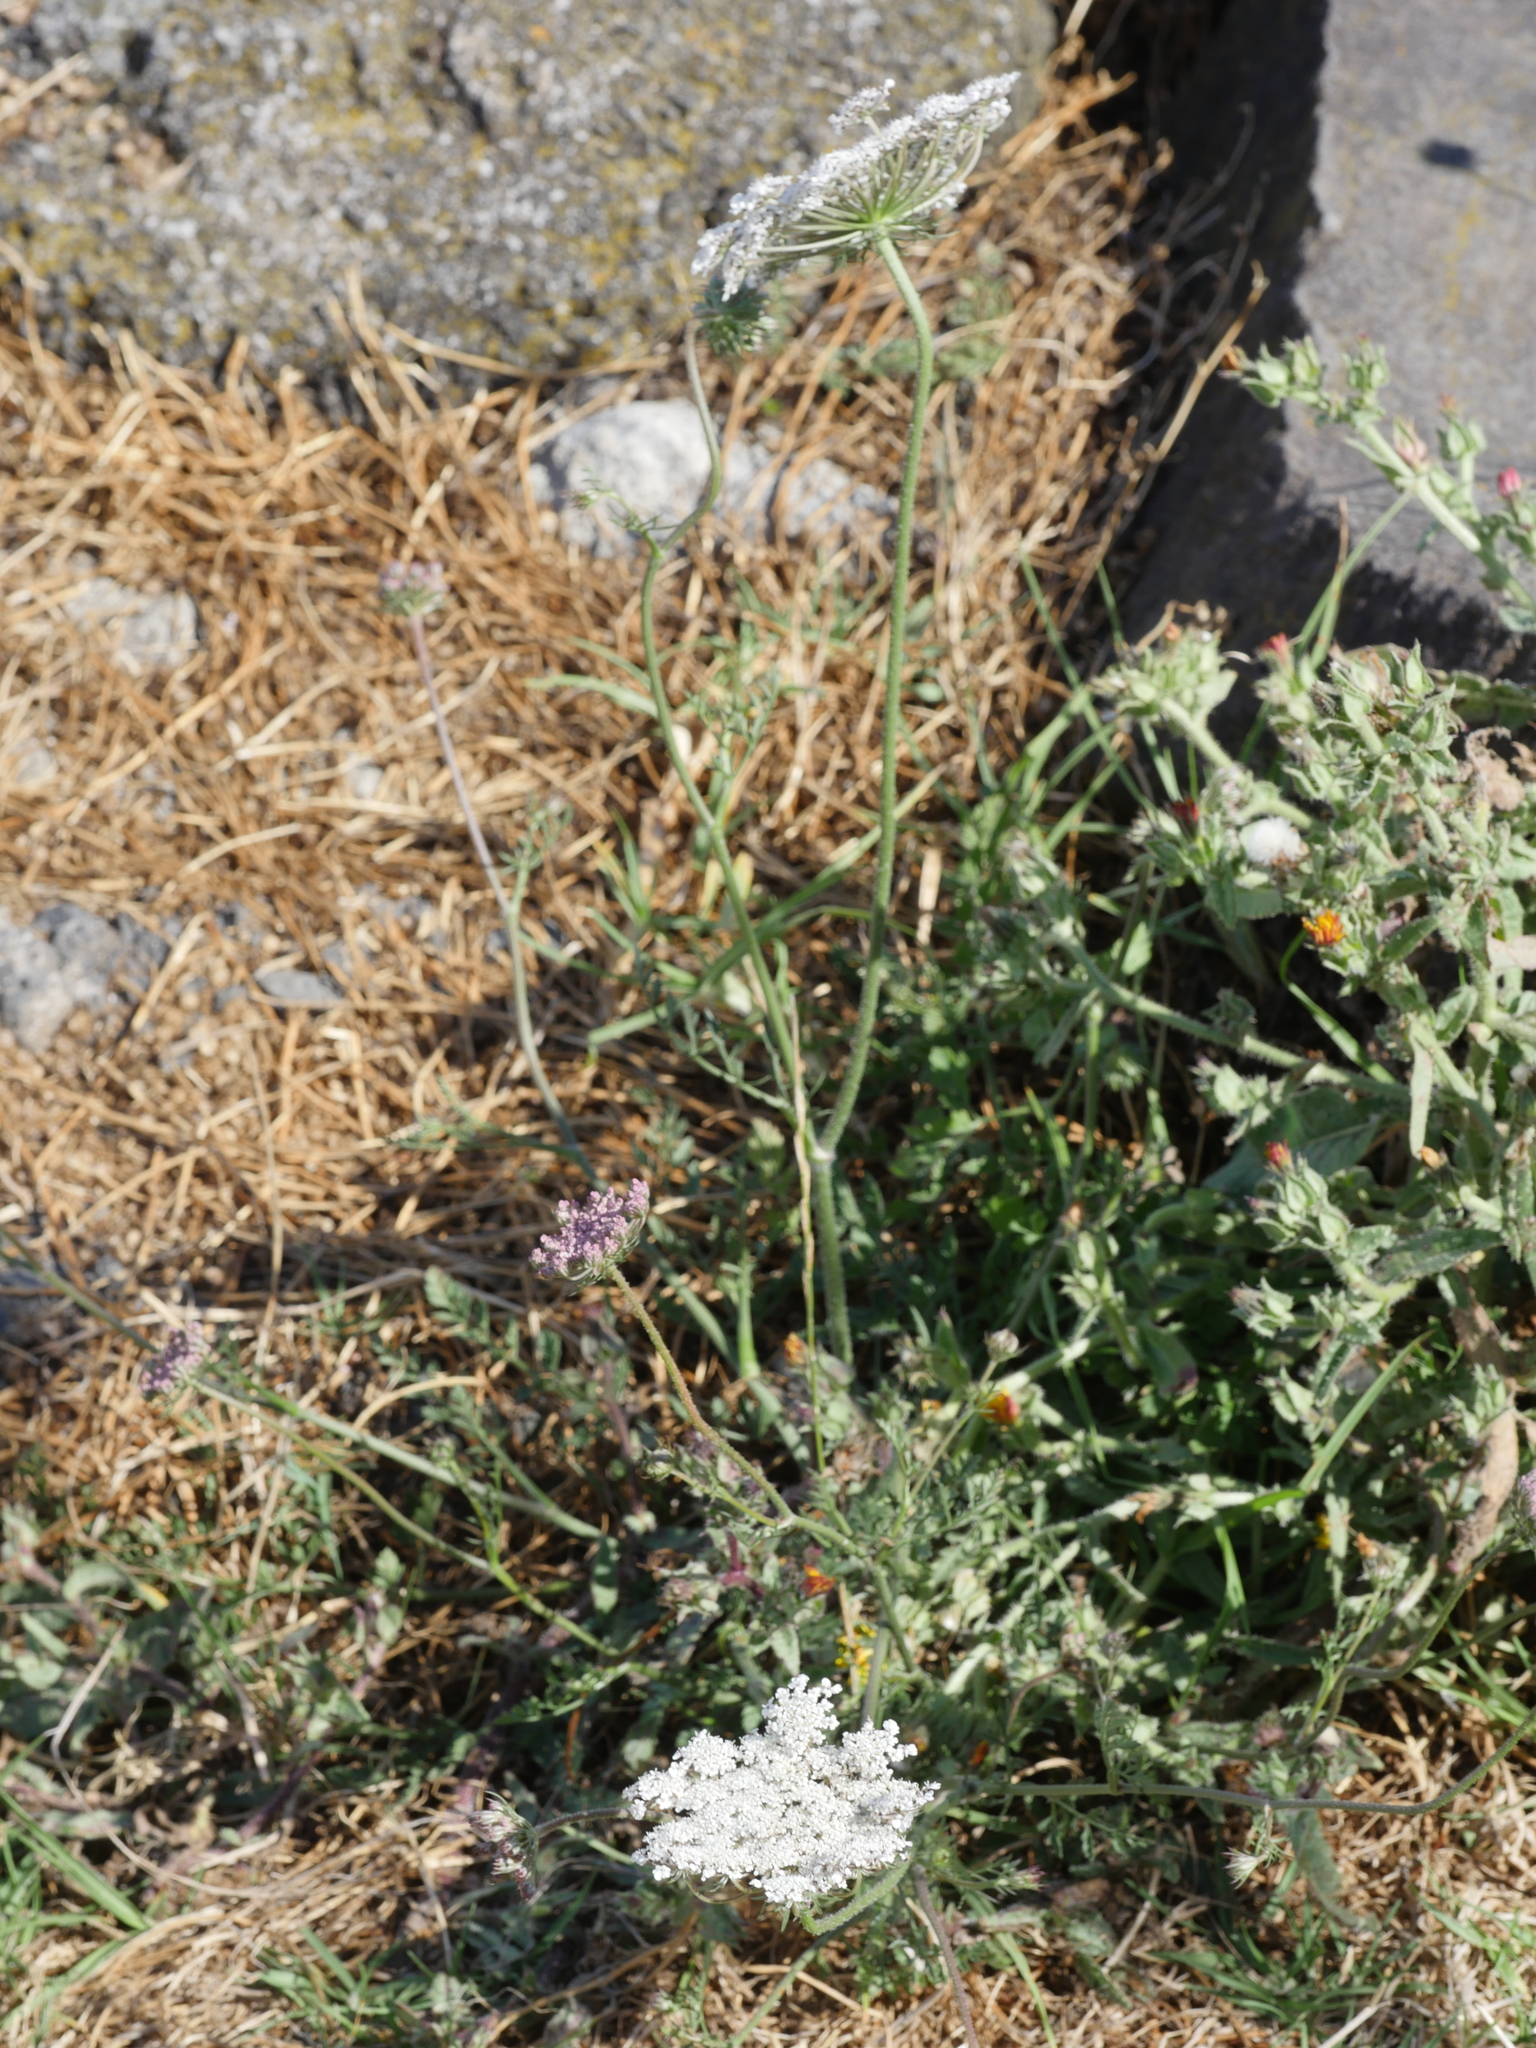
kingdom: Plantae
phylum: Tracheophyta
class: Magnoliopsida
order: Apiales
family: Apiaceae
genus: Daucus
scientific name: Daucus carota
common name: Wild carrot
